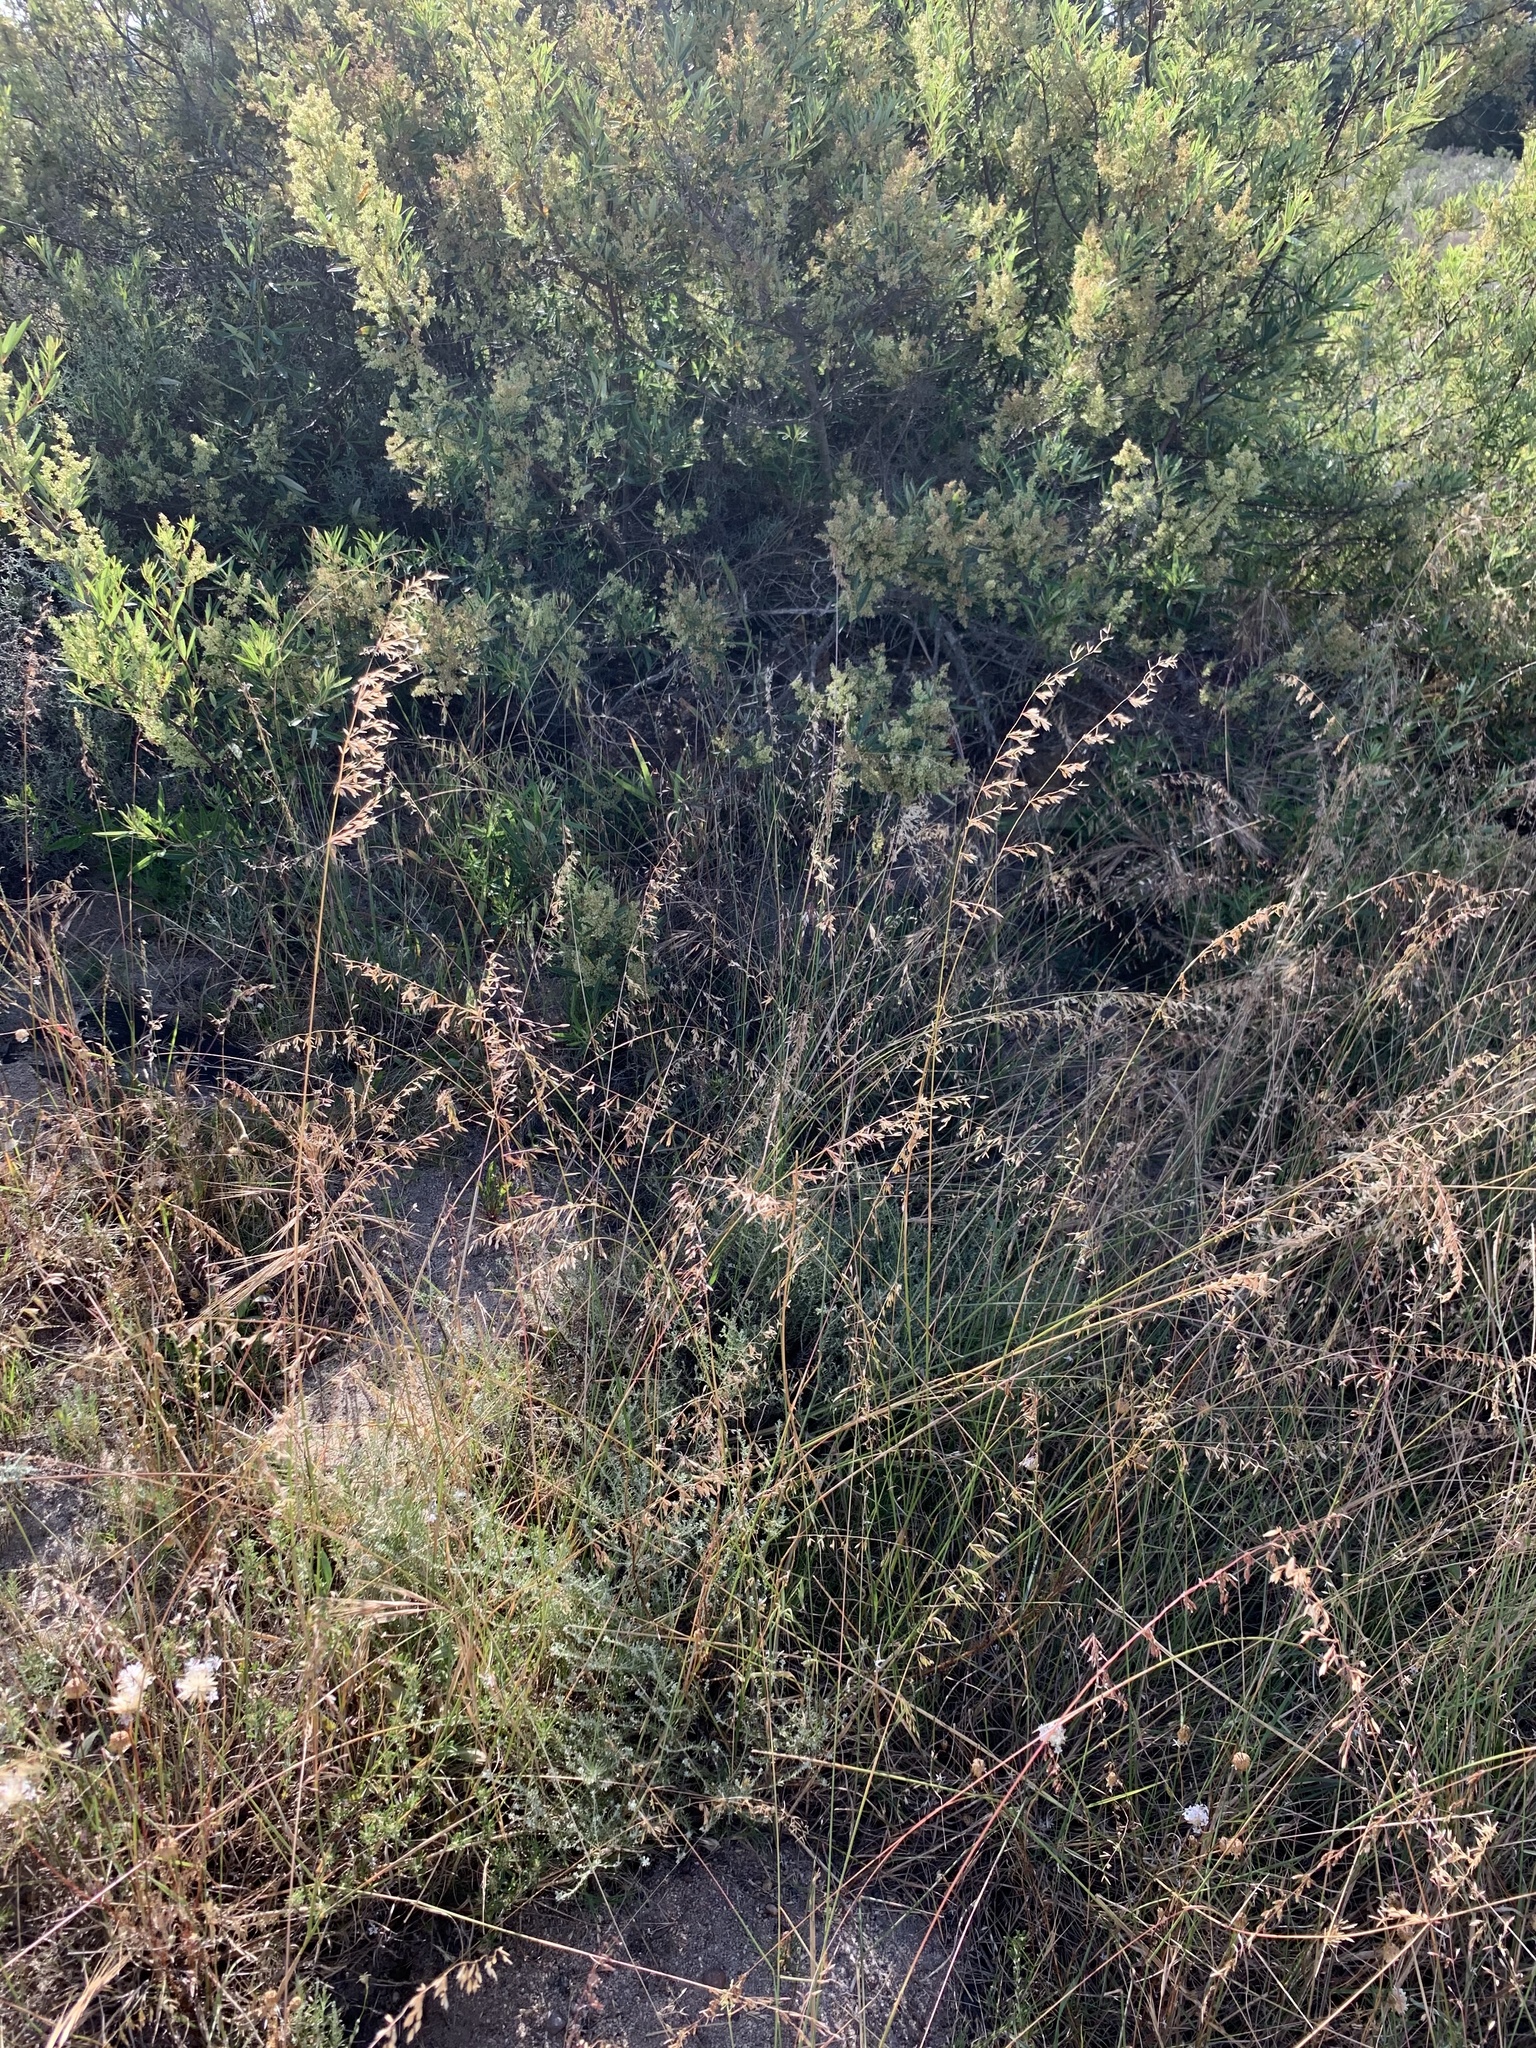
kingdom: Plantae
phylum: Tracheophyta
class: Liliopsida
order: Poales
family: Poaceae
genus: Ehrharta
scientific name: Ehrharta calycina
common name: Perennial veldtgrass
